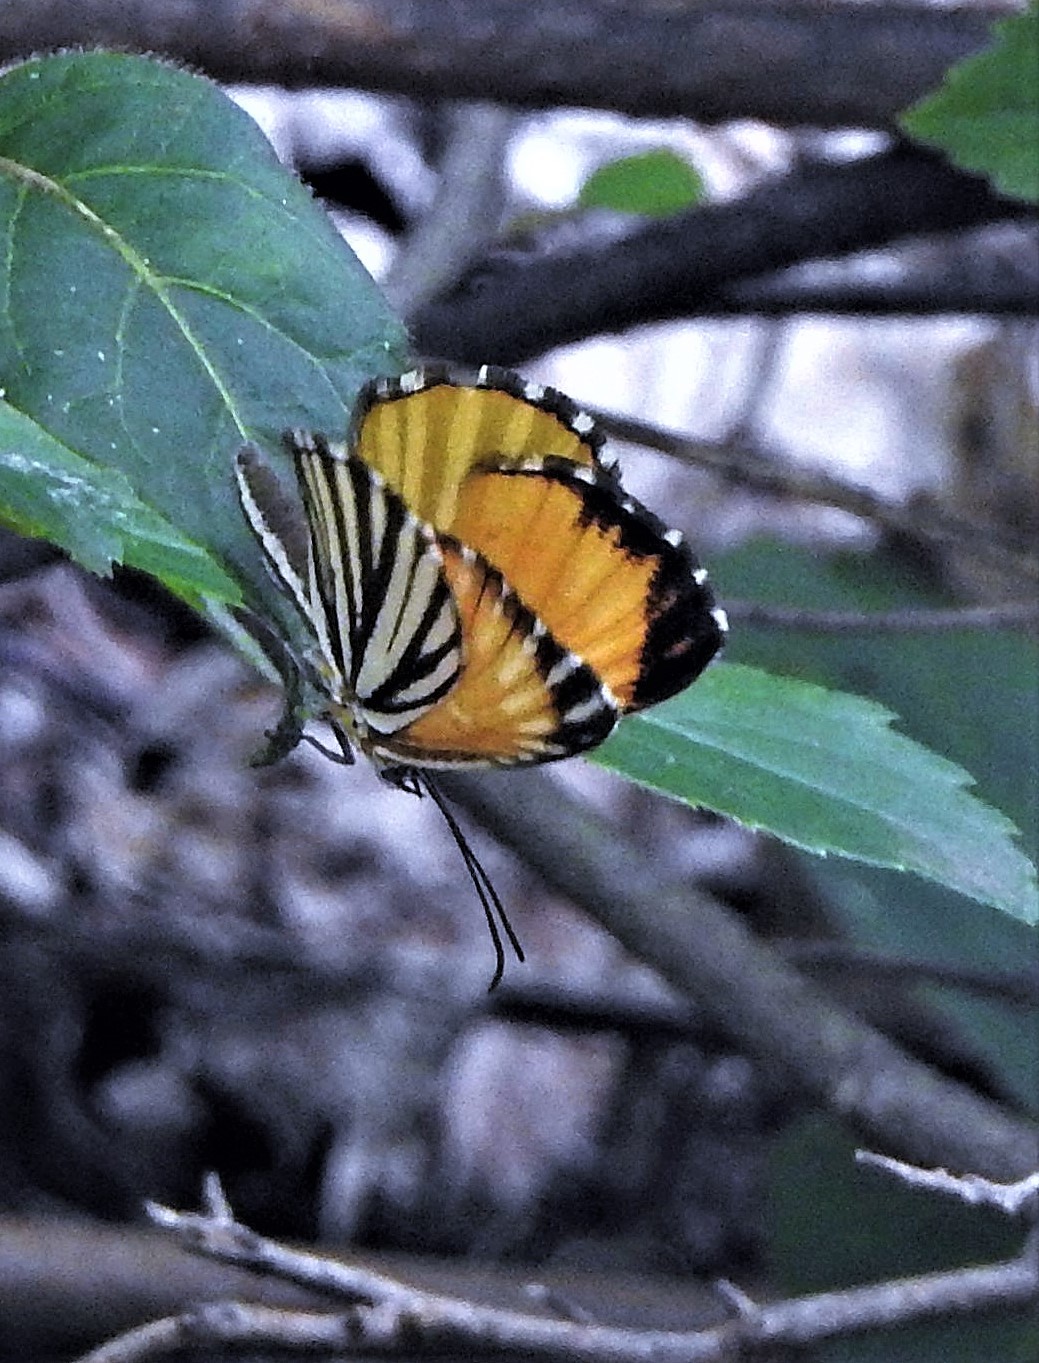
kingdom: Animalia
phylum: Arthropoda
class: Insecta
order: Lepidoptera
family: Riodinidae
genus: Orimba
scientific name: Orimba terias
